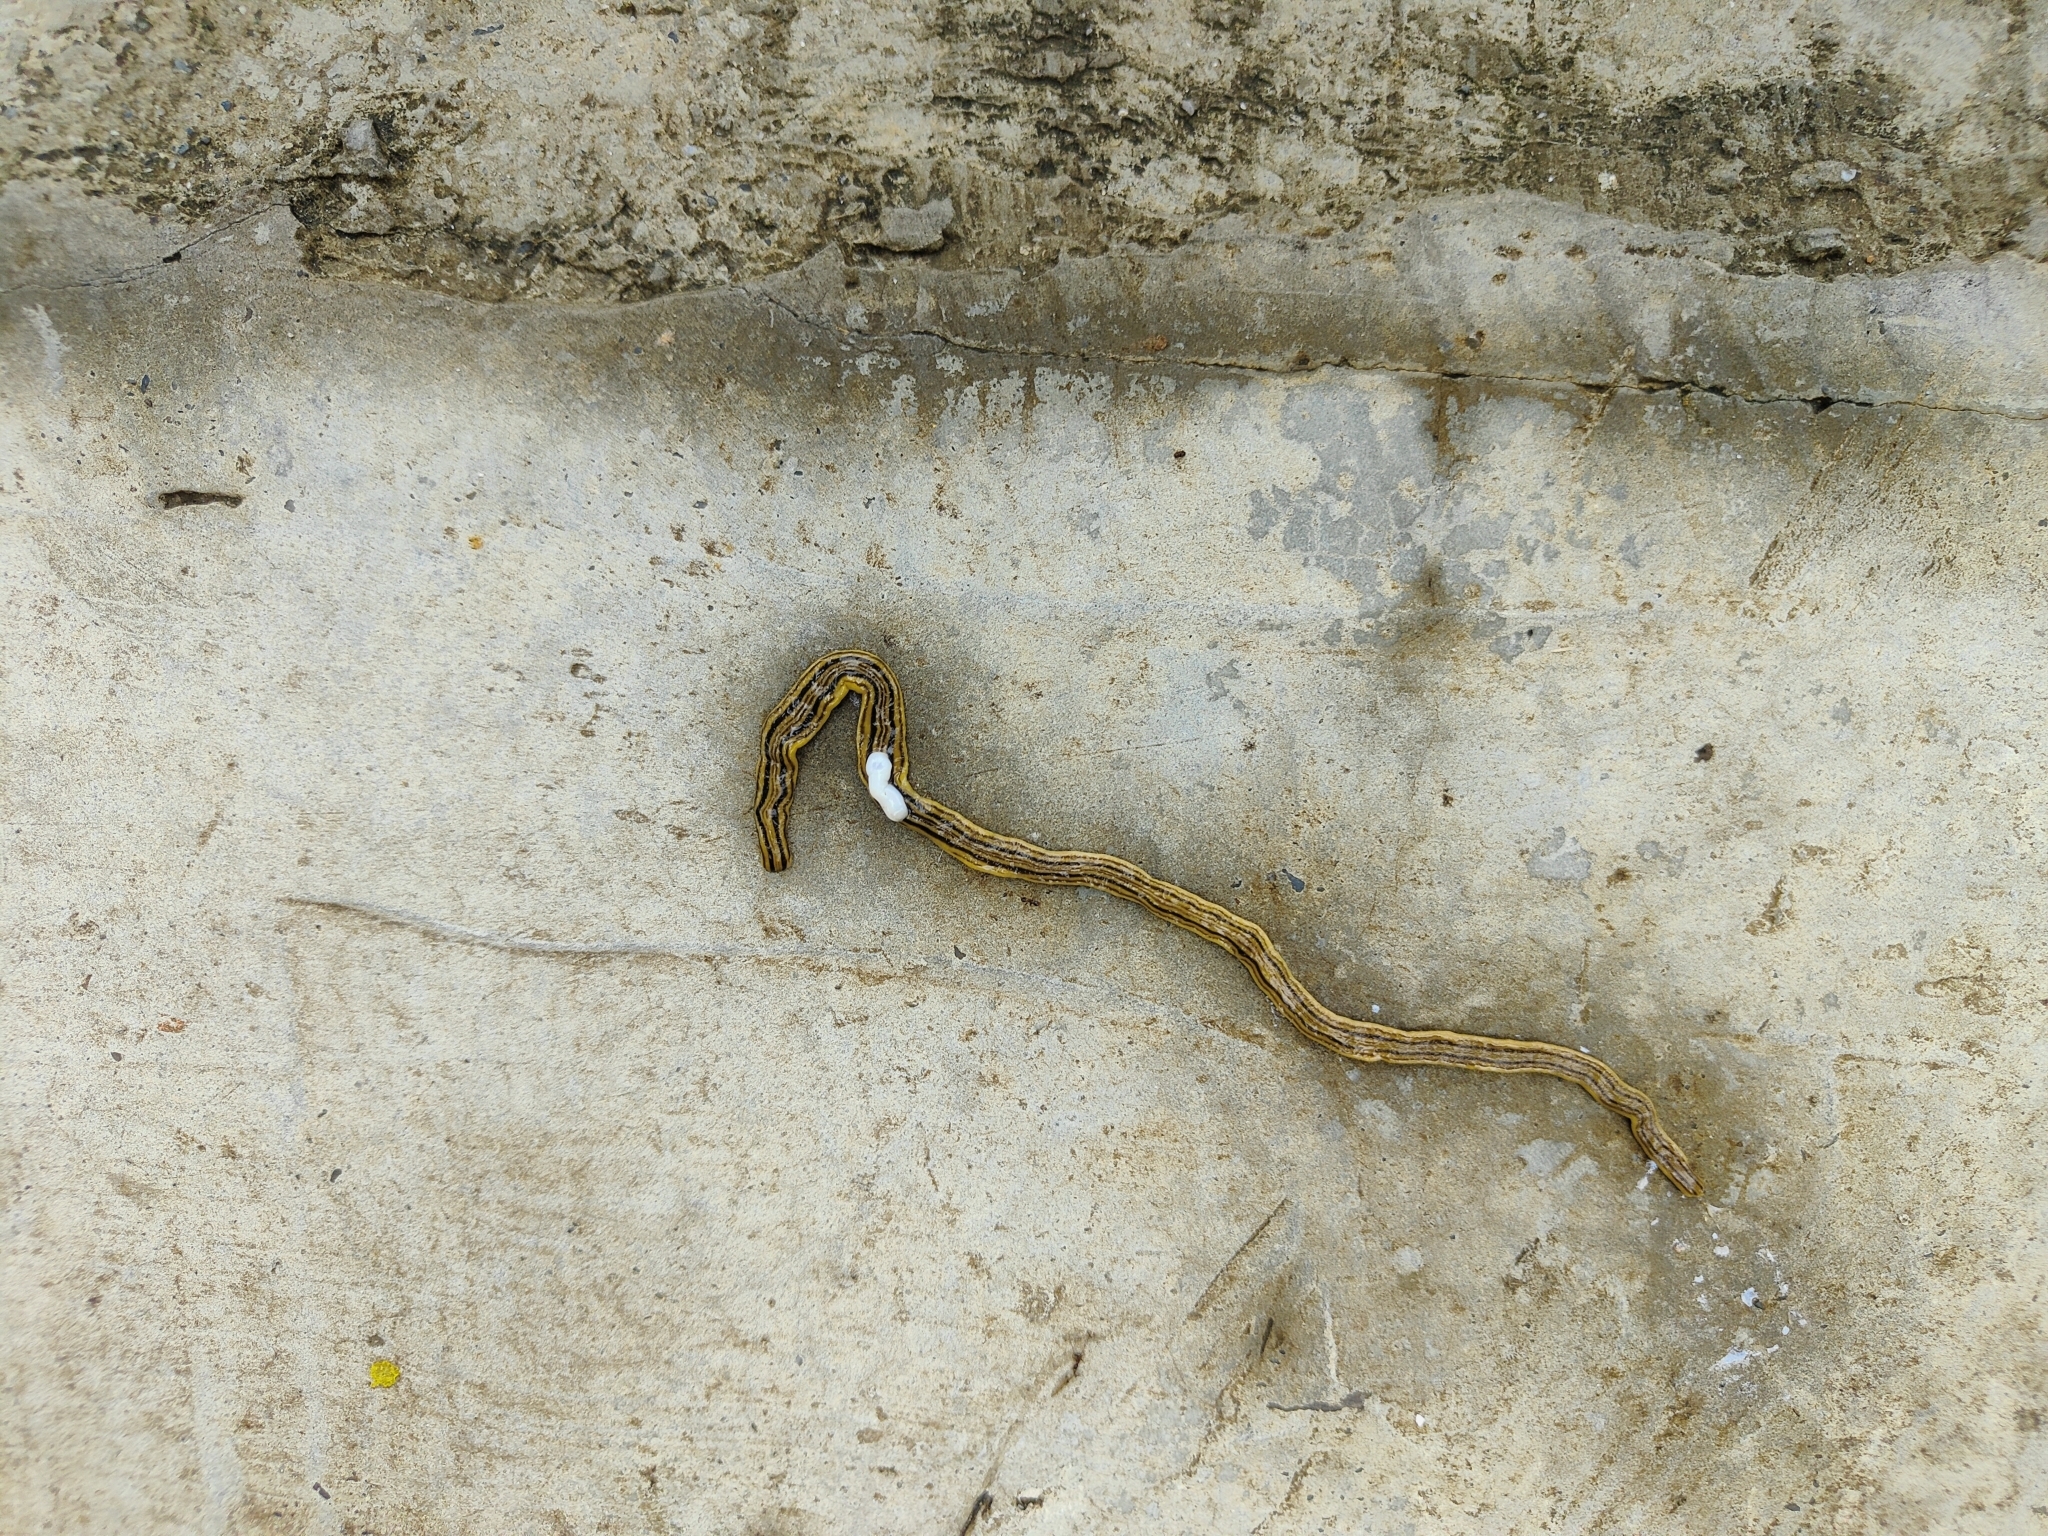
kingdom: Animalia
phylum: Platyhelminthes
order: Tricladida
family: Geoplanidae
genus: Dolichoplana
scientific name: Dolichoplana striata
